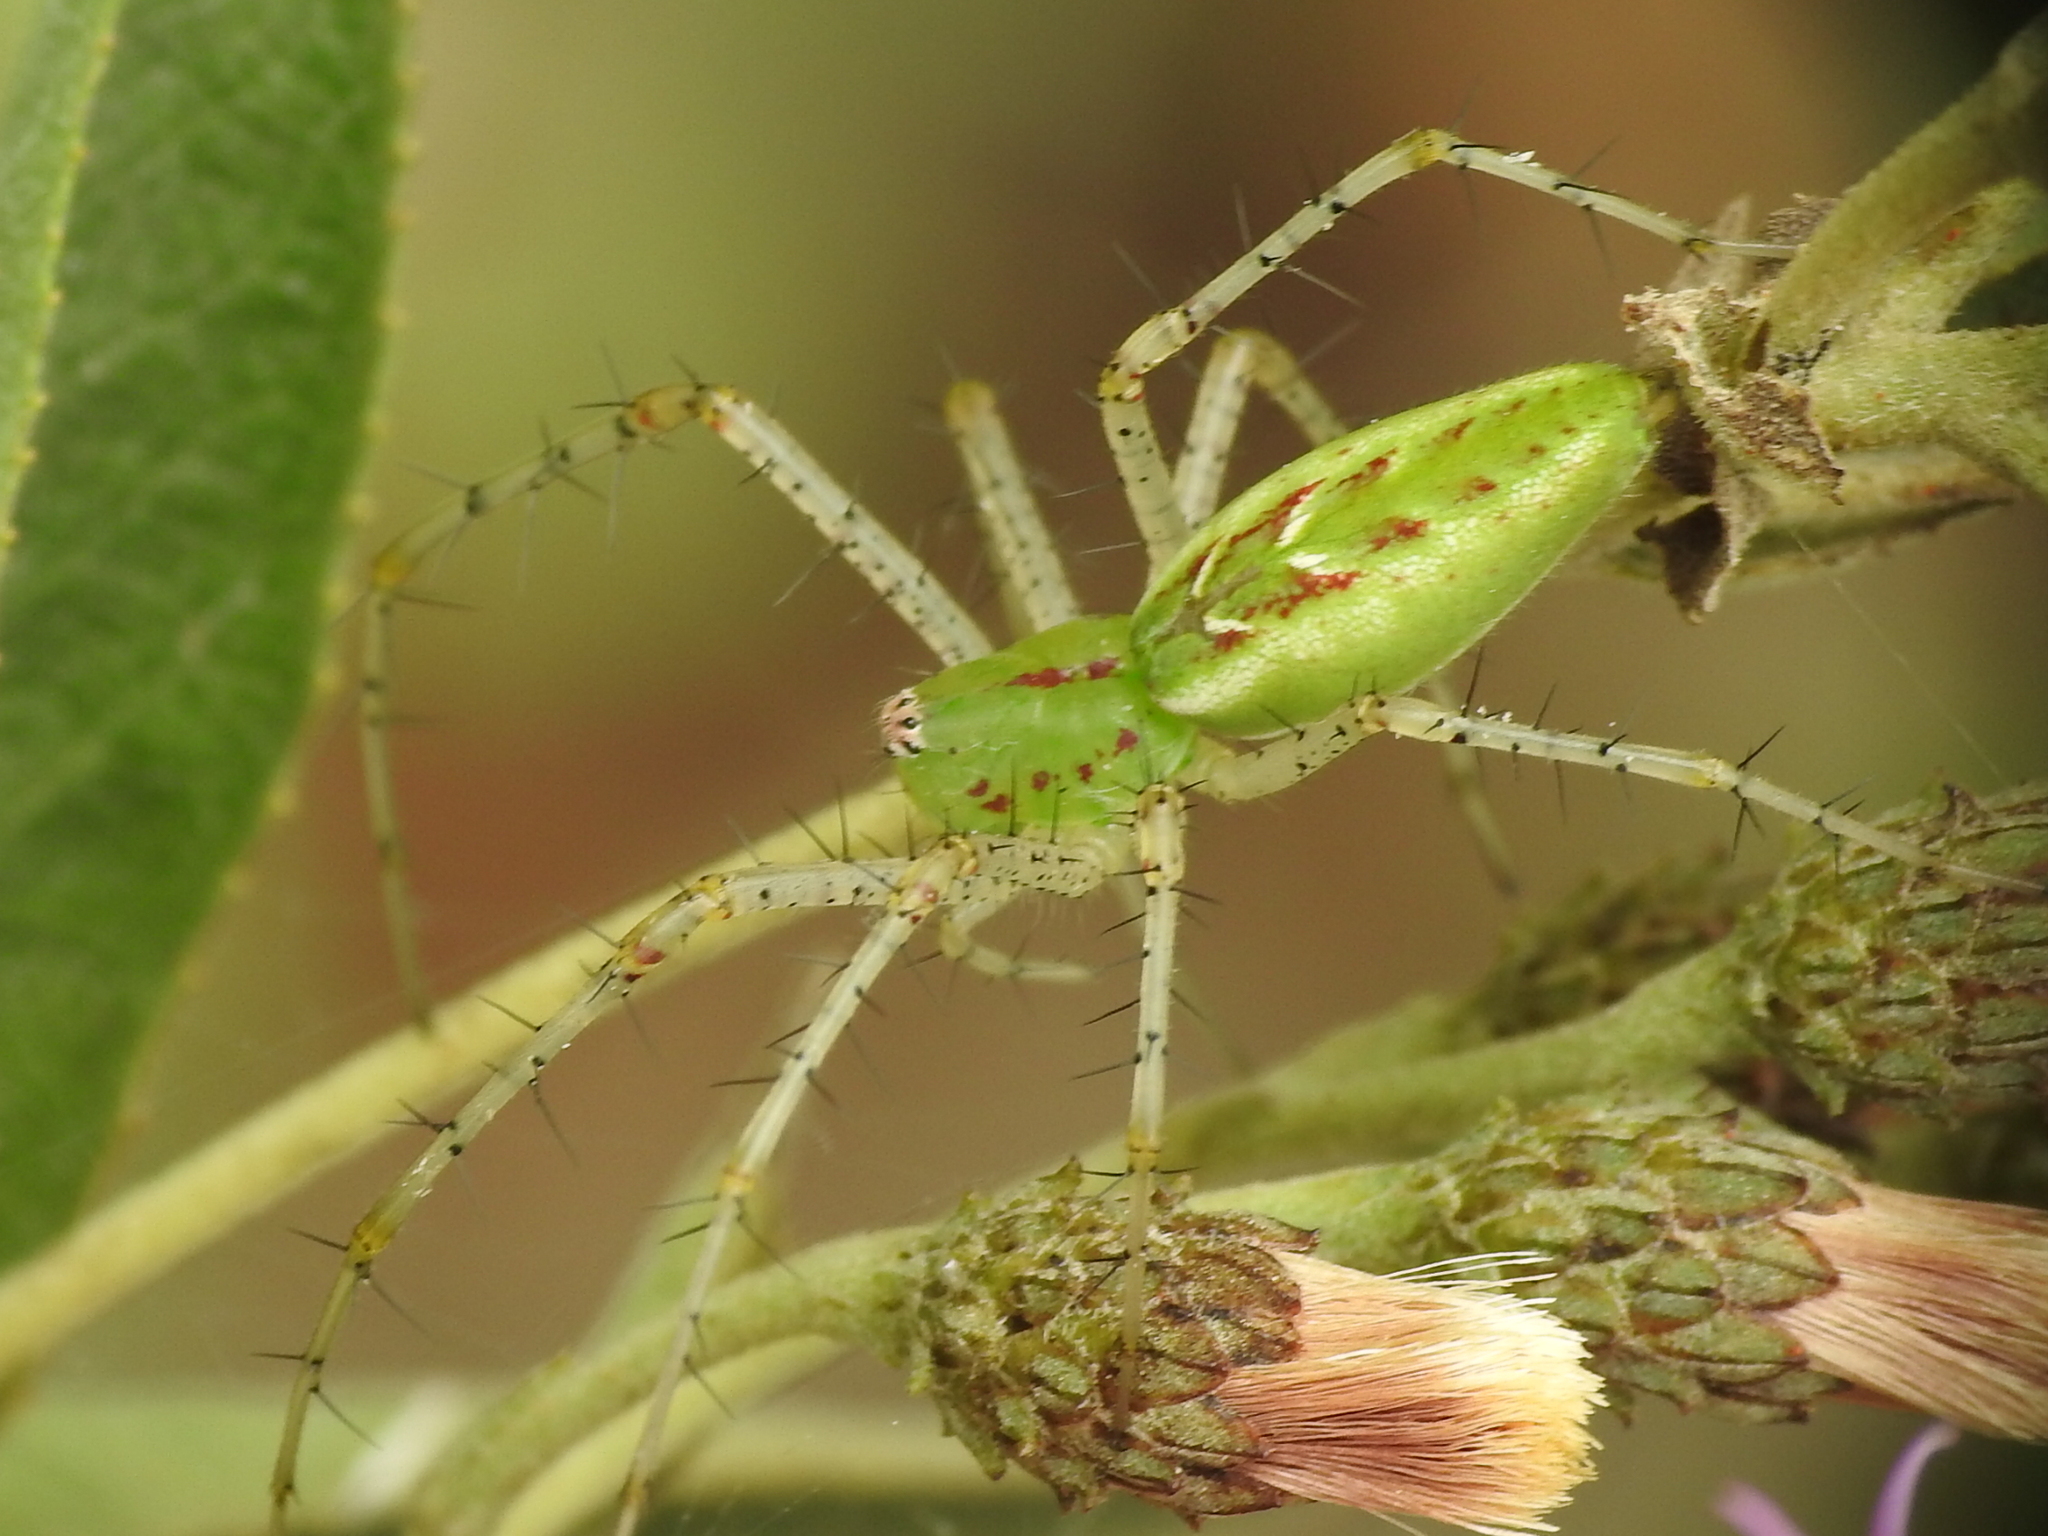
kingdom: Animalia
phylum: Arthropoda
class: Arachnida
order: Araneae
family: Oxyopidae
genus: Peucetia
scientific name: Peucetia viridans
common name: Lynx spiders
